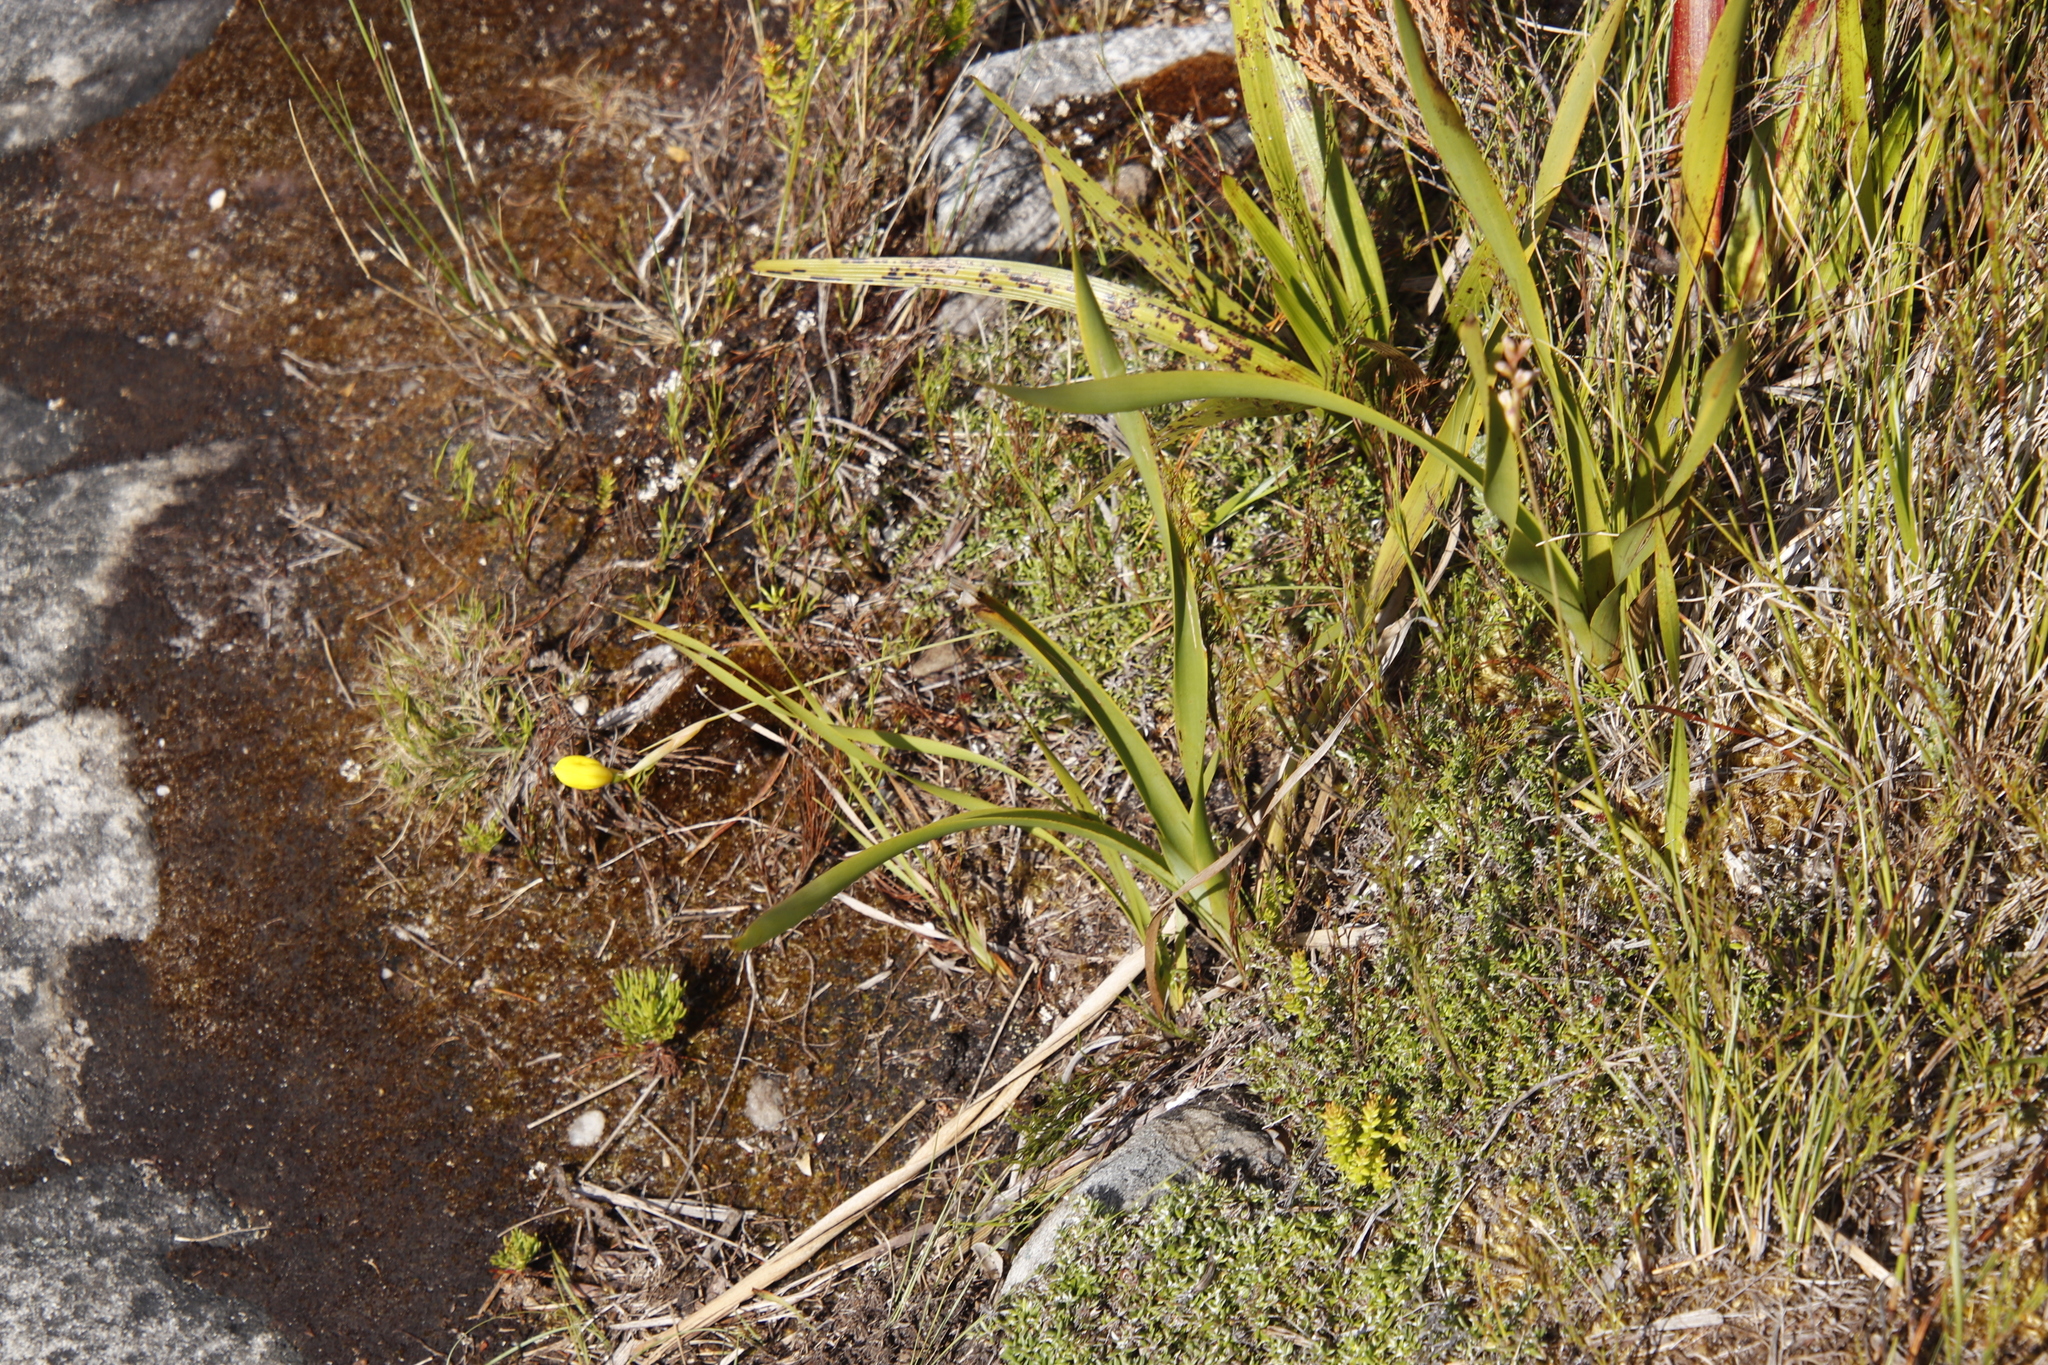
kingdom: Plantae
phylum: Tracheophyta
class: Liliopsida
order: Asparagales
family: Iridaceae
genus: Bobartia
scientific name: Bobartia filiformis
